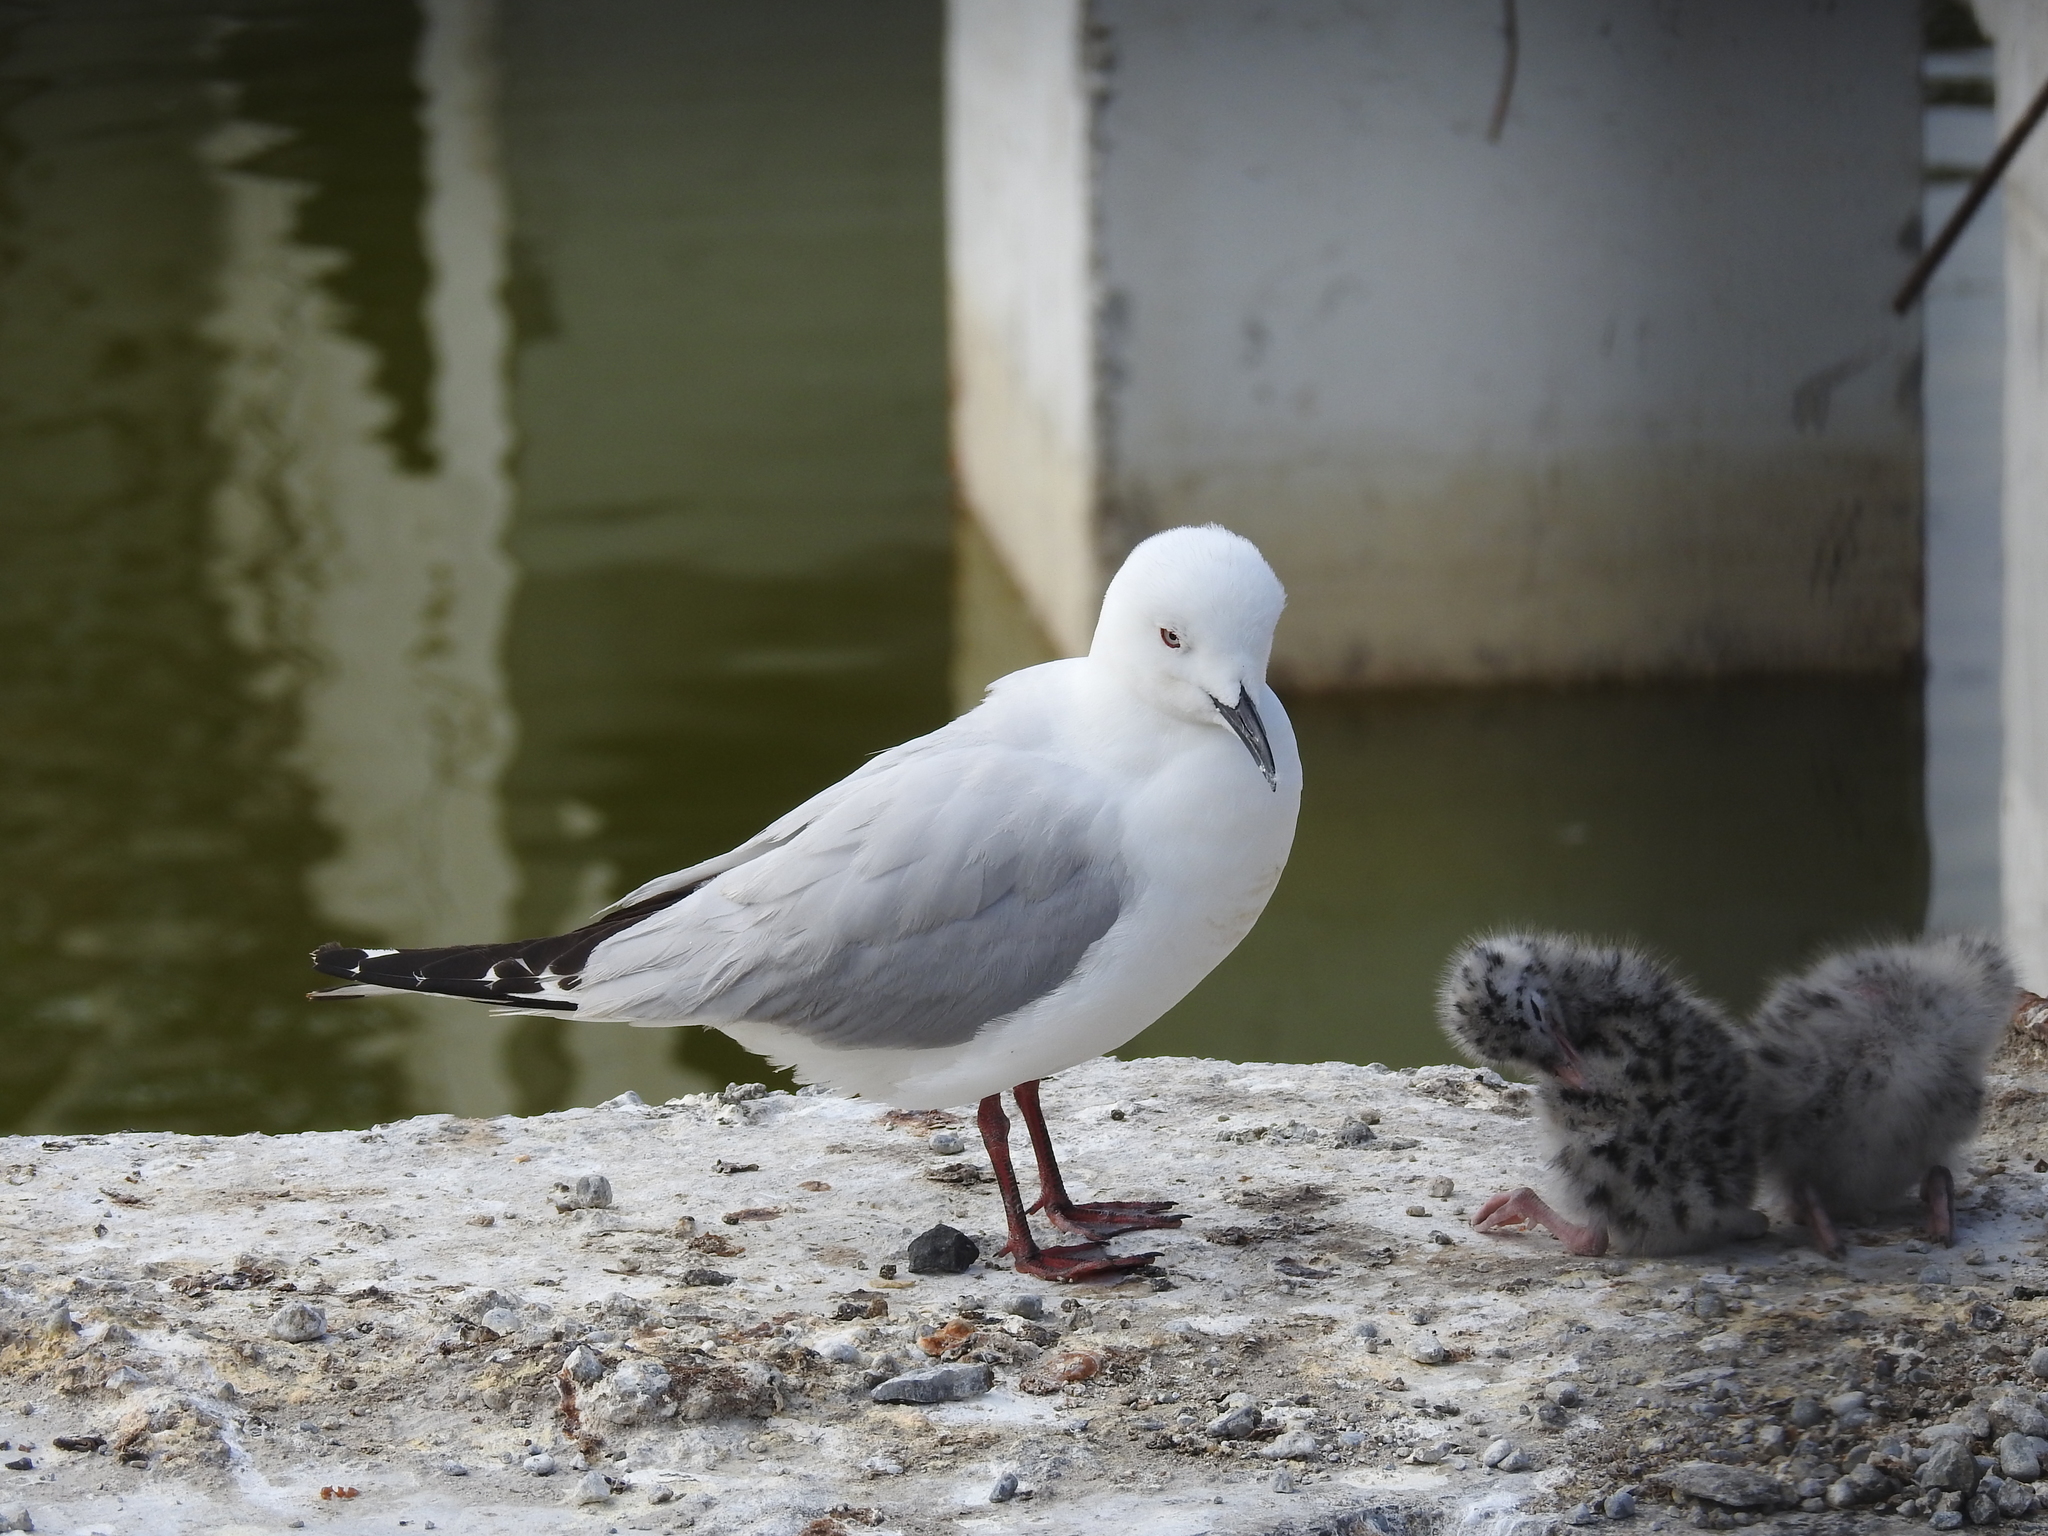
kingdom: Animalia
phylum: Chordata
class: Aves
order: Charadriiformes
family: Laridae
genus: Chroicocephalus
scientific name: Chroicocephalus bulleri
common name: Black-billed gull
